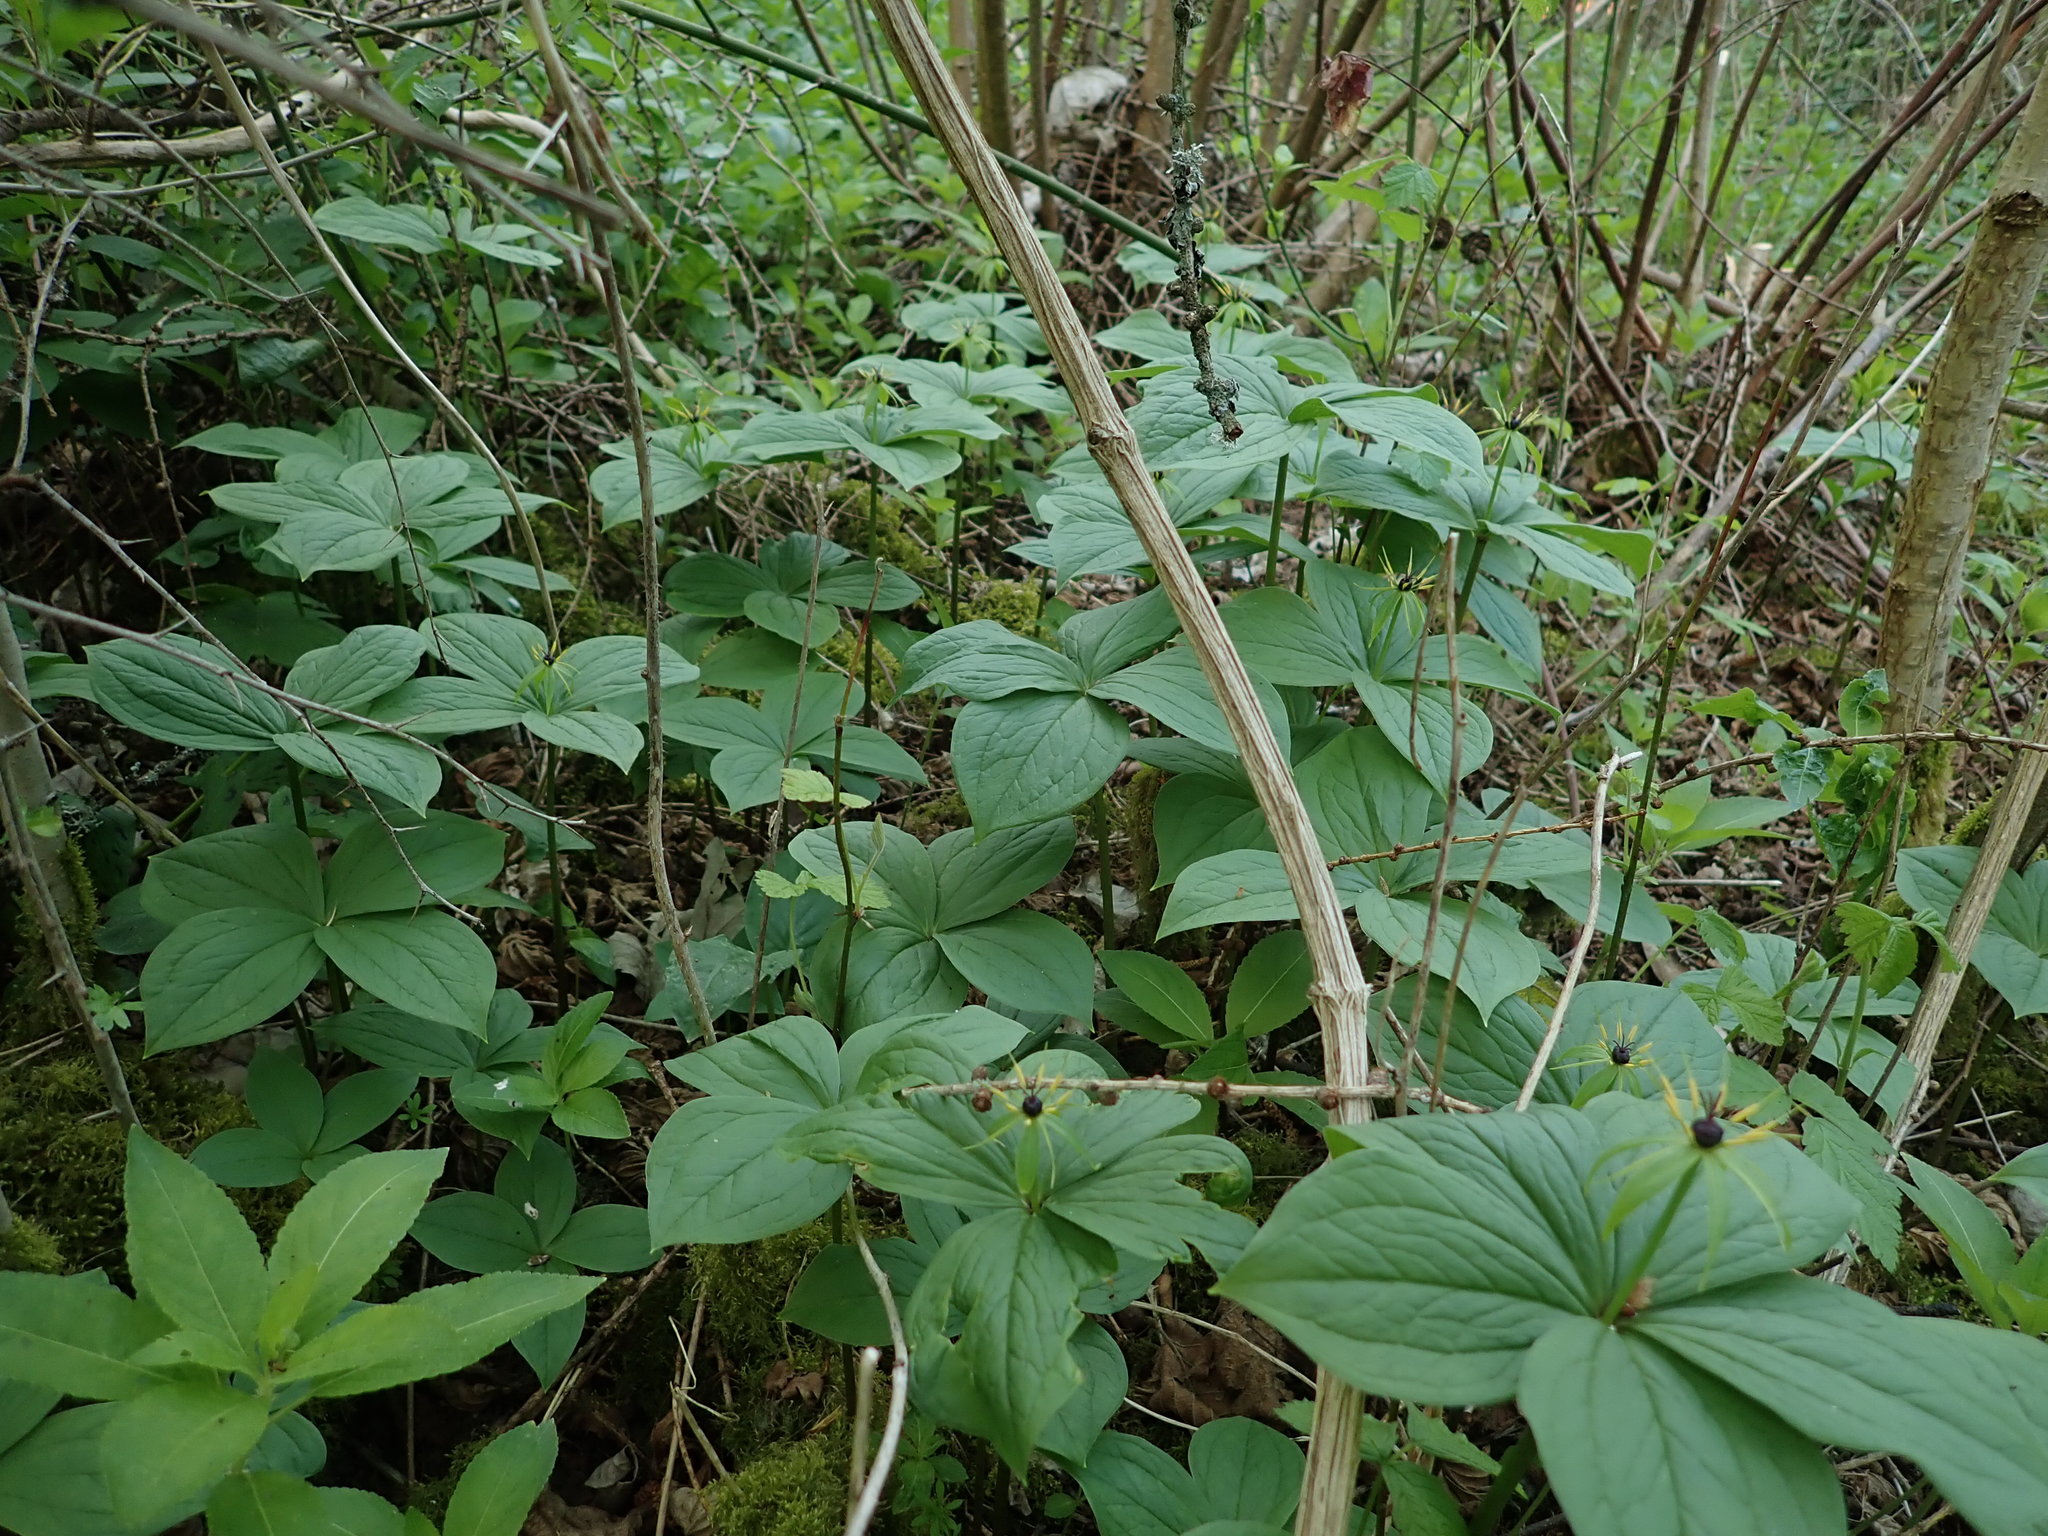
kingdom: Plantae
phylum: Tracheophyta
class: Liliopsida
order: Liliales
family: Melanthiaceae
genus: Paris
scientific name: Paris quadrifolia
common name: Herb-paris
